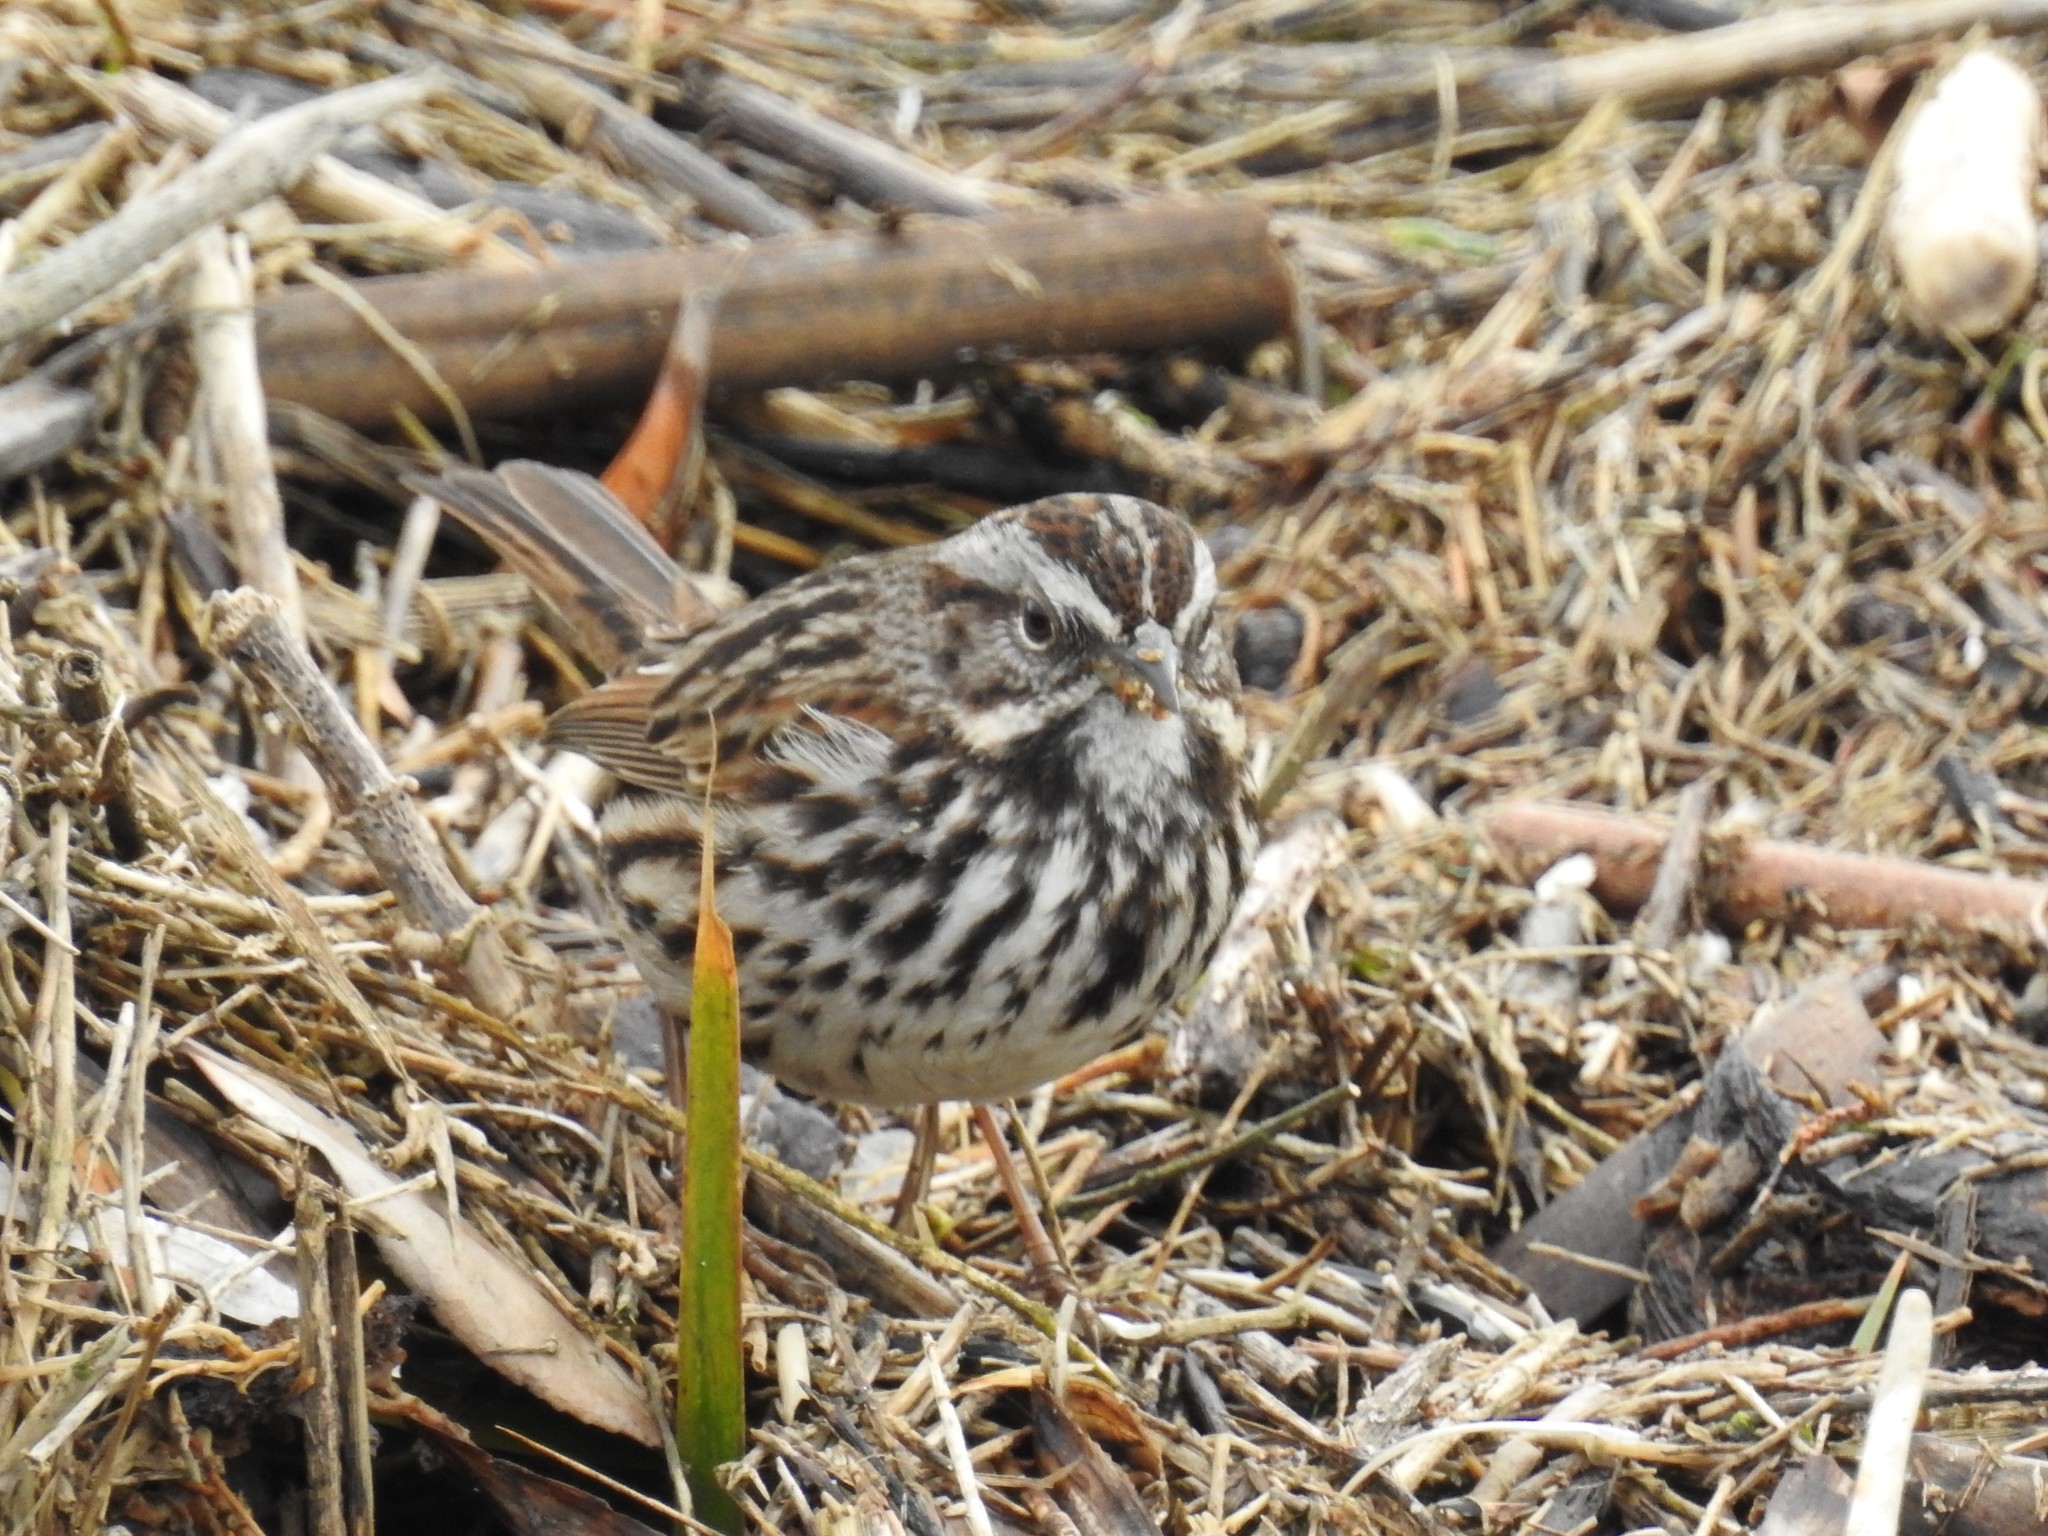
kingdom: Animalia
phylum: Chordata
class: Aves
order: Passeriformes
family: Passerellidae
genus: Melospiza
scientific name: Melospiza melodia
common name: Song sparrow
